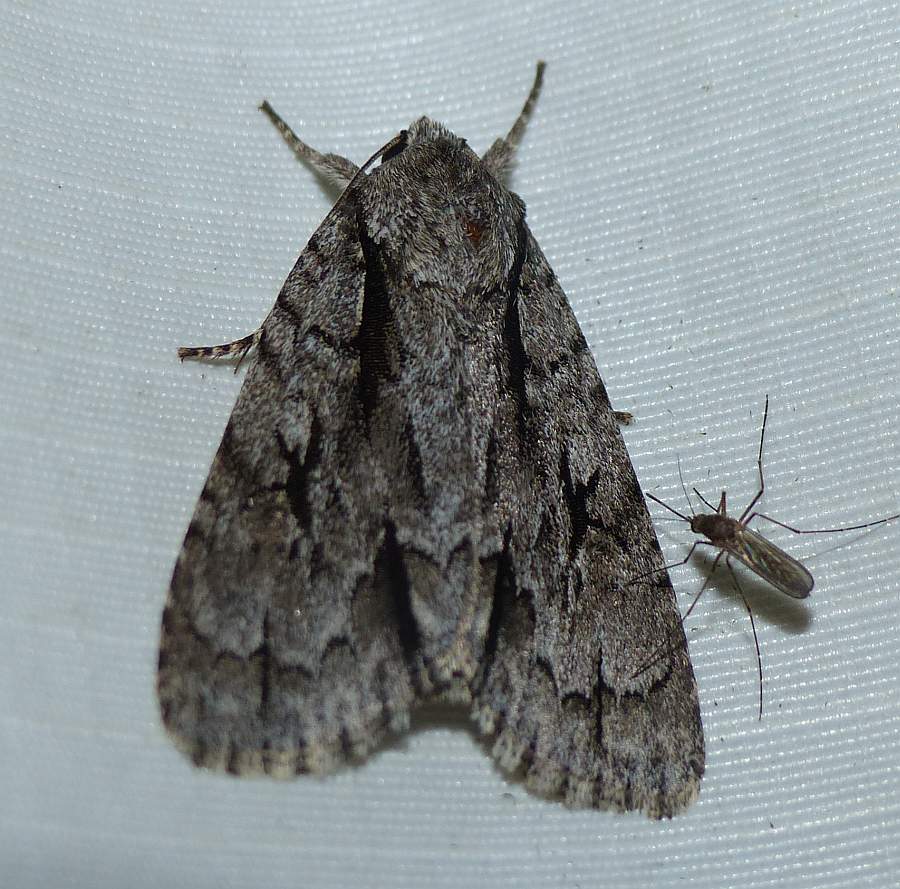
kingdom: Animalia
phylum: Arthropoda
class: Insecta
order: Lepidoptera
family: Noctuidae
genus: Acronicta
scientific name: Acronicta hasta
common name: Cherry dagger
